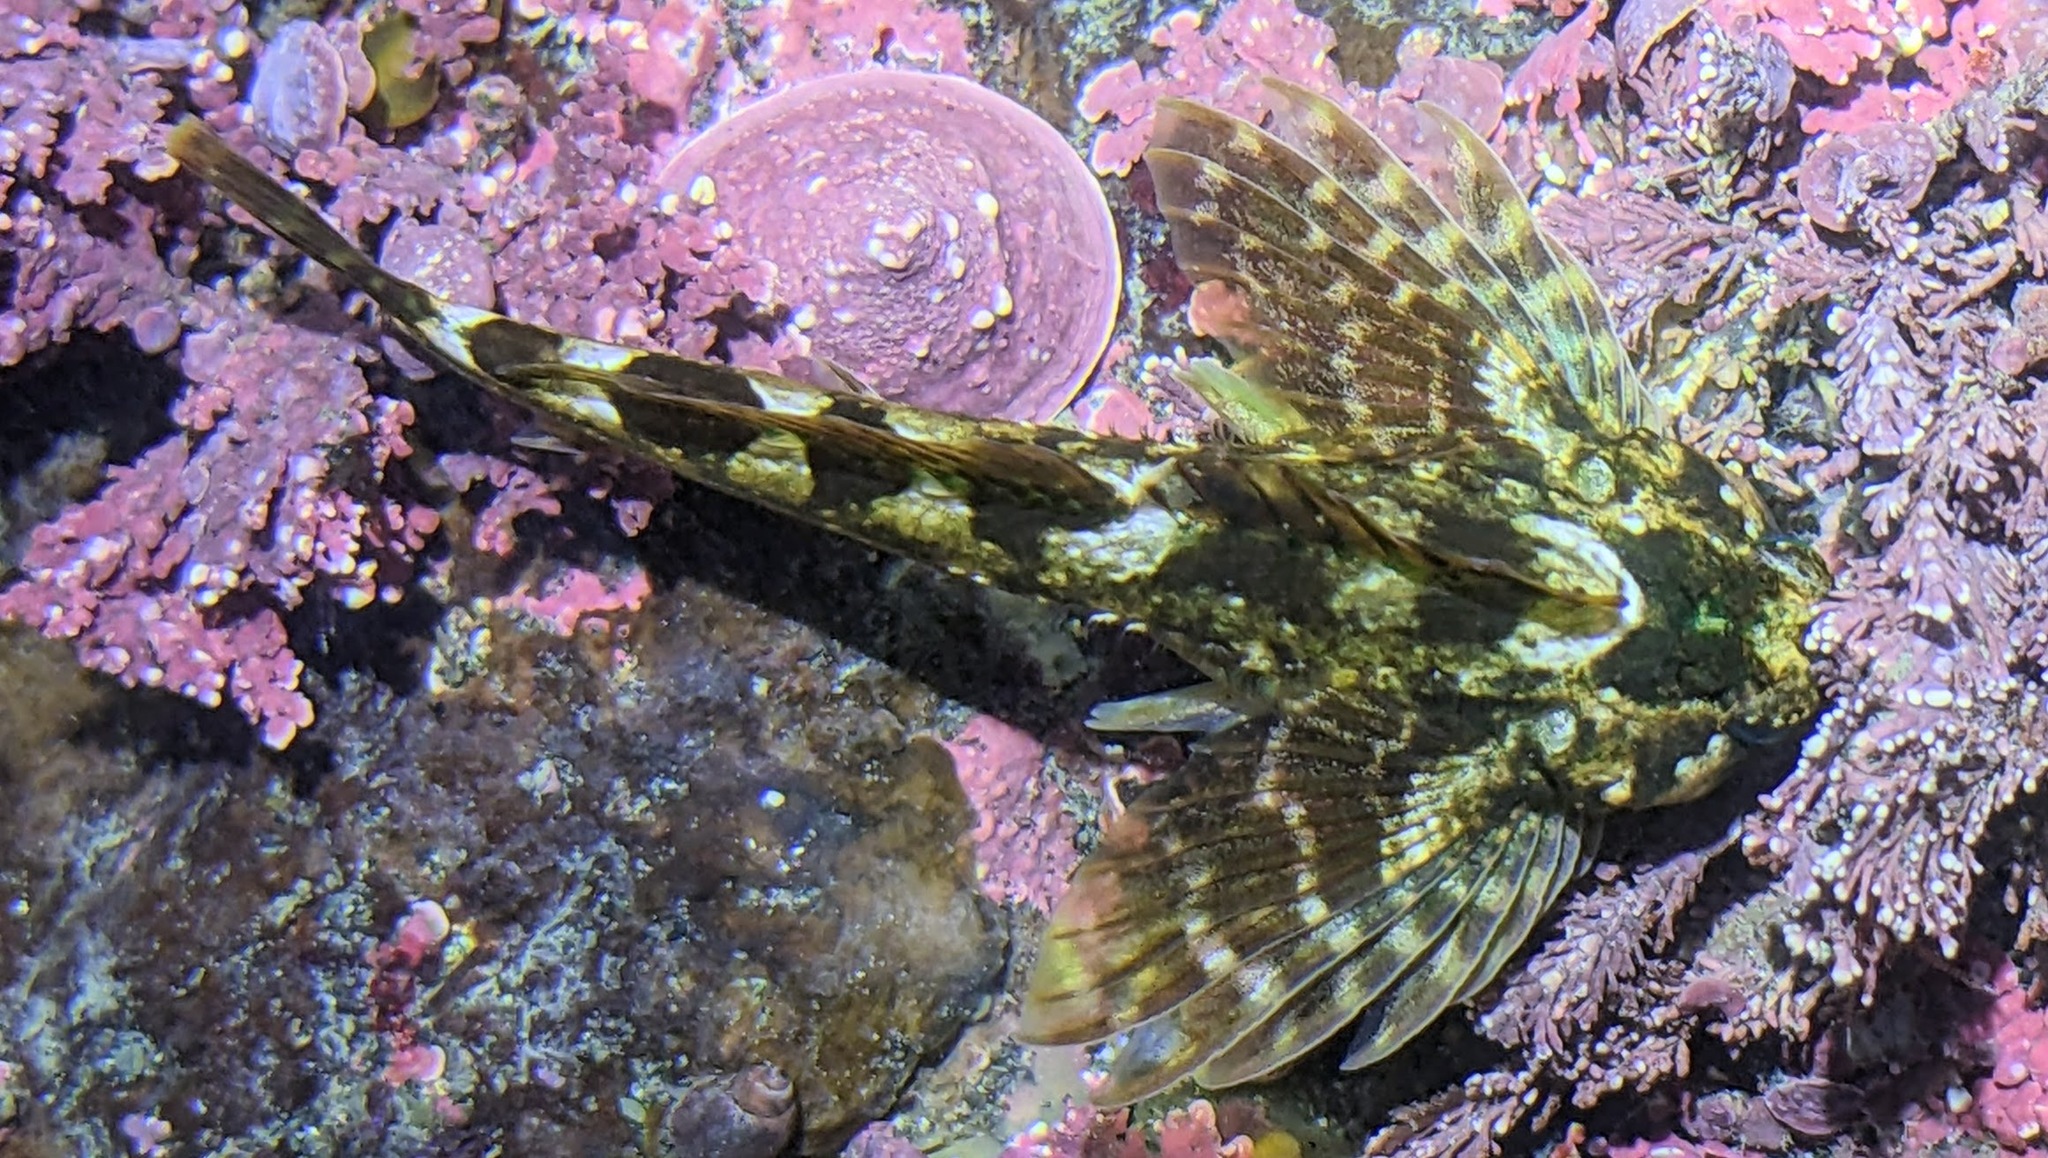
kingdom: Animalia
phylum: Chordata
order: Scorpaeniformes
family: Cottidae
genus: Clinocottus
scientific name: Clinocottus embryum
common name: Calico sculpin
